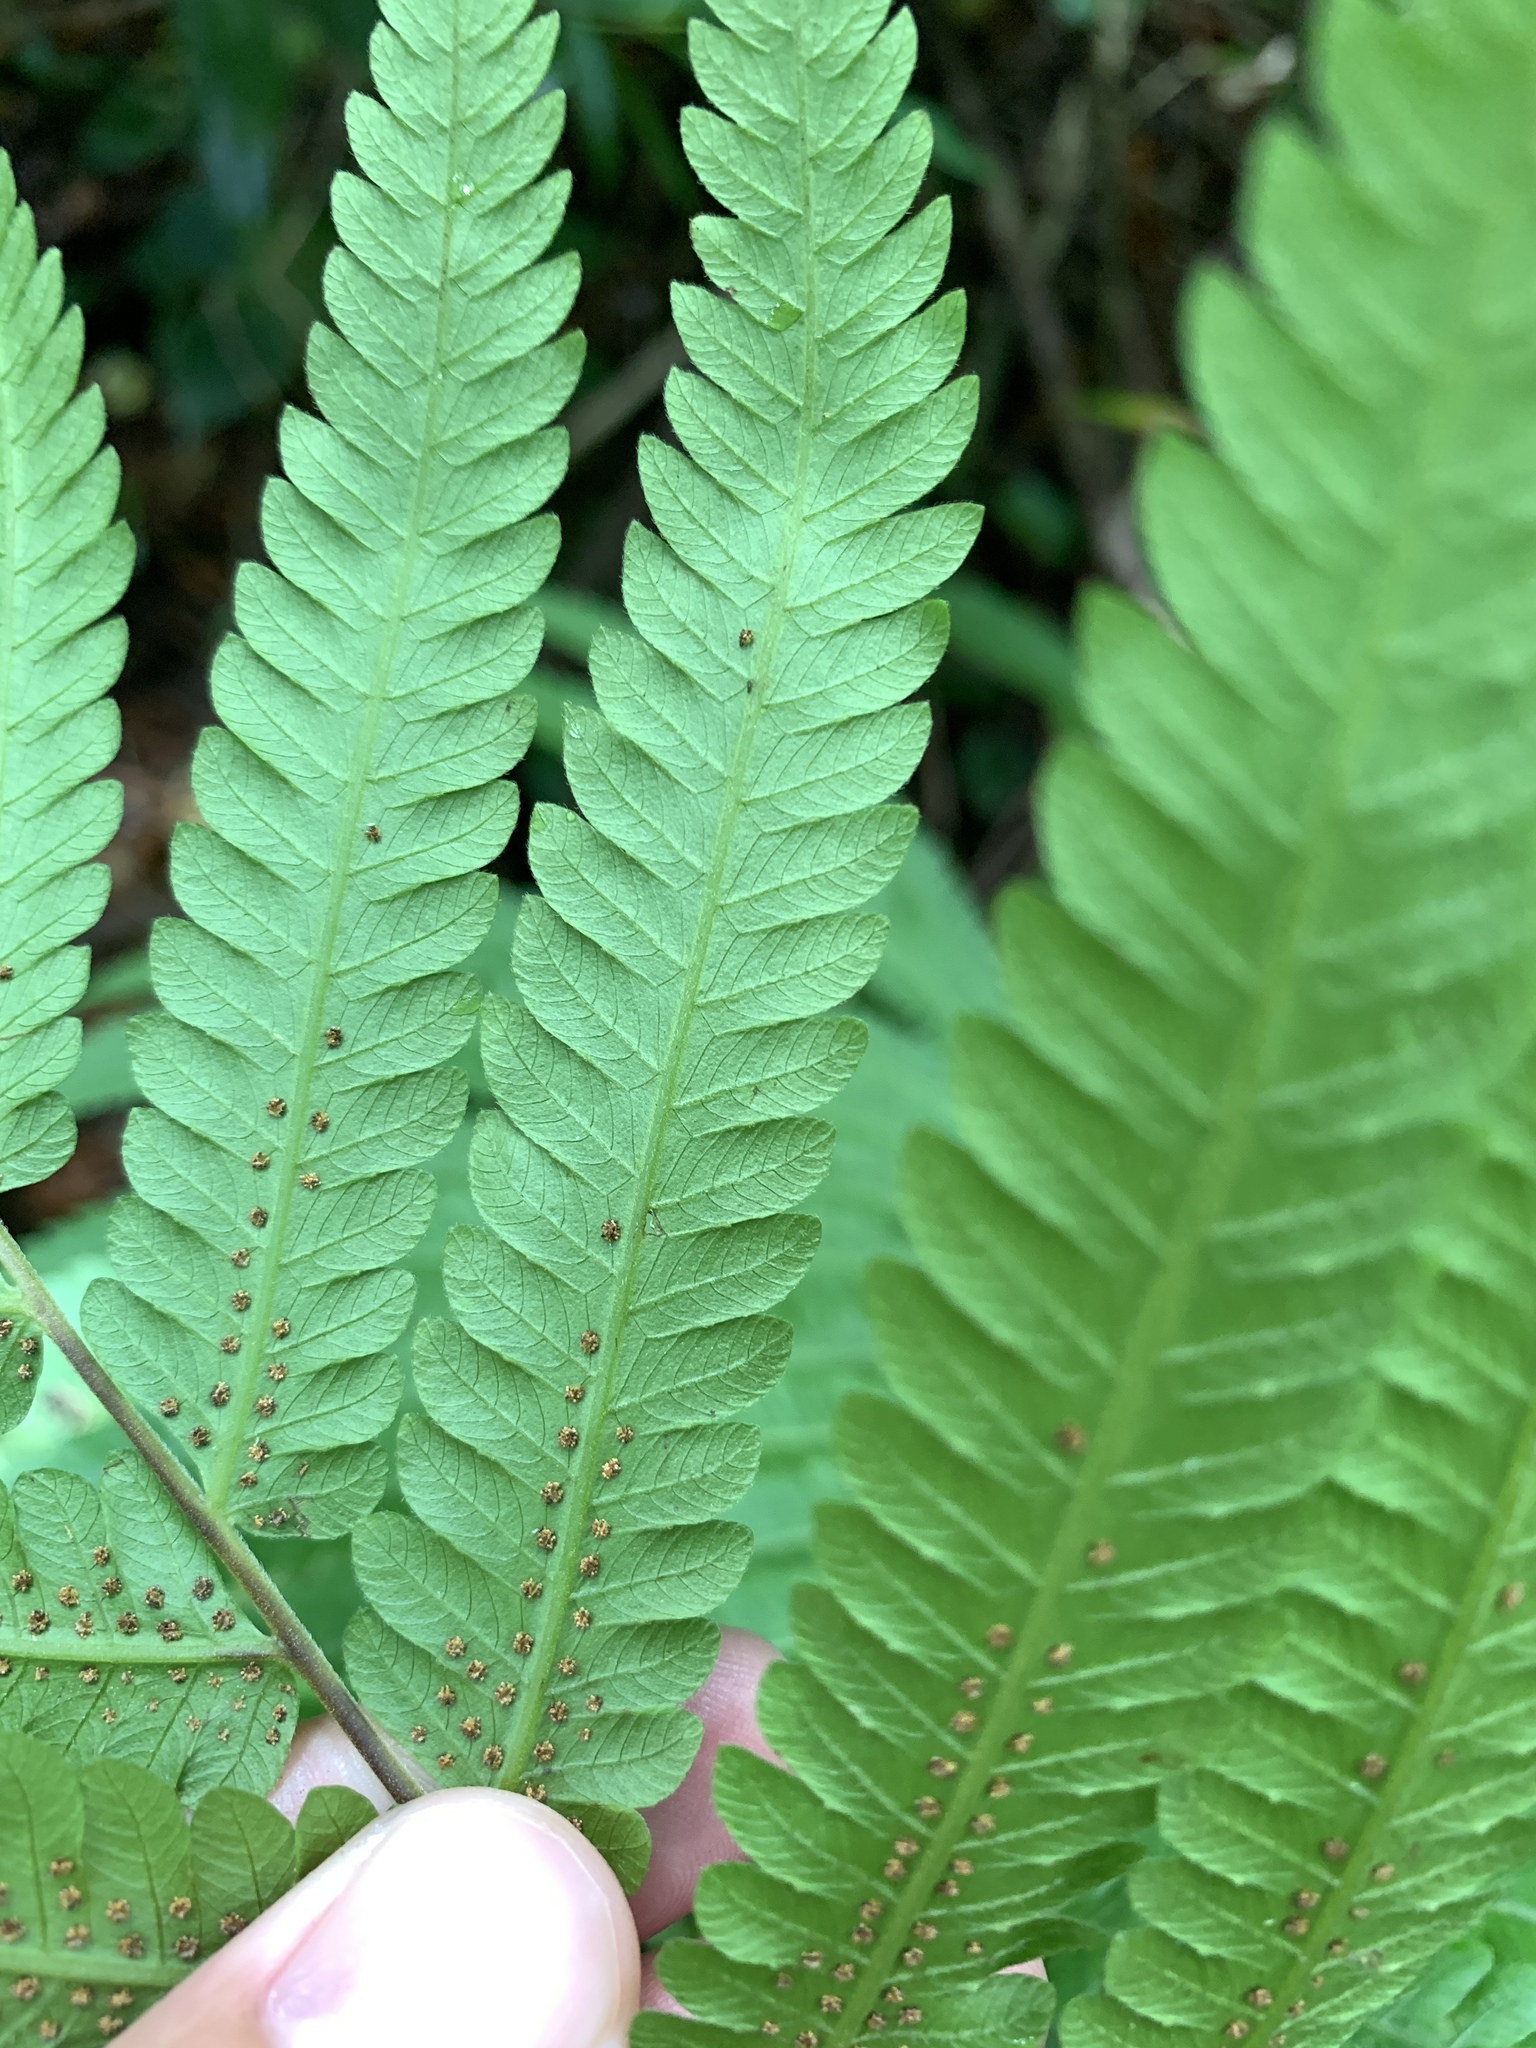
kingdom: Plantae
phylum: Tracheophyta
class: Polypodiopsida
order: Polypodiales
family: Thelypteridaceae
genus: Sphaerostephanos
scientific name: Sphaerostephanos productus
